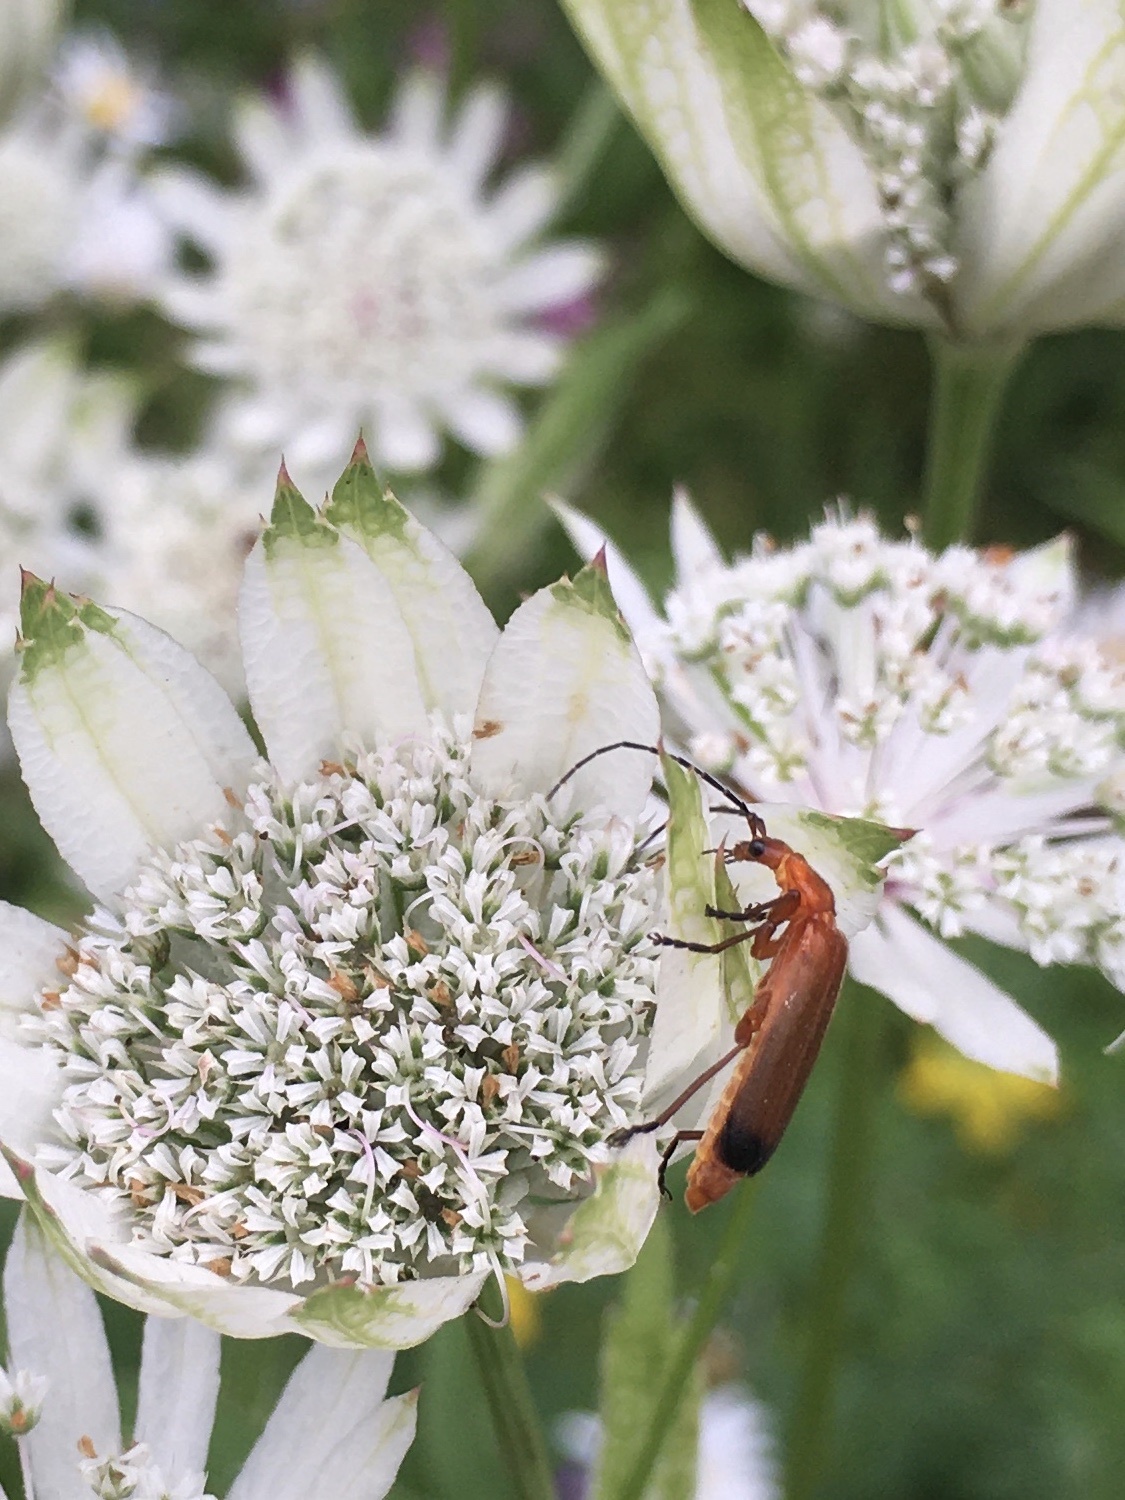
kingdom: Animalia
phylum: Arthropoda
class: Insecta
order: Coleoptera
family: Cantharidae
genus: Rhagonycha
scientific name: Rhagonycha fulva
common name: Common red soldier beetle
